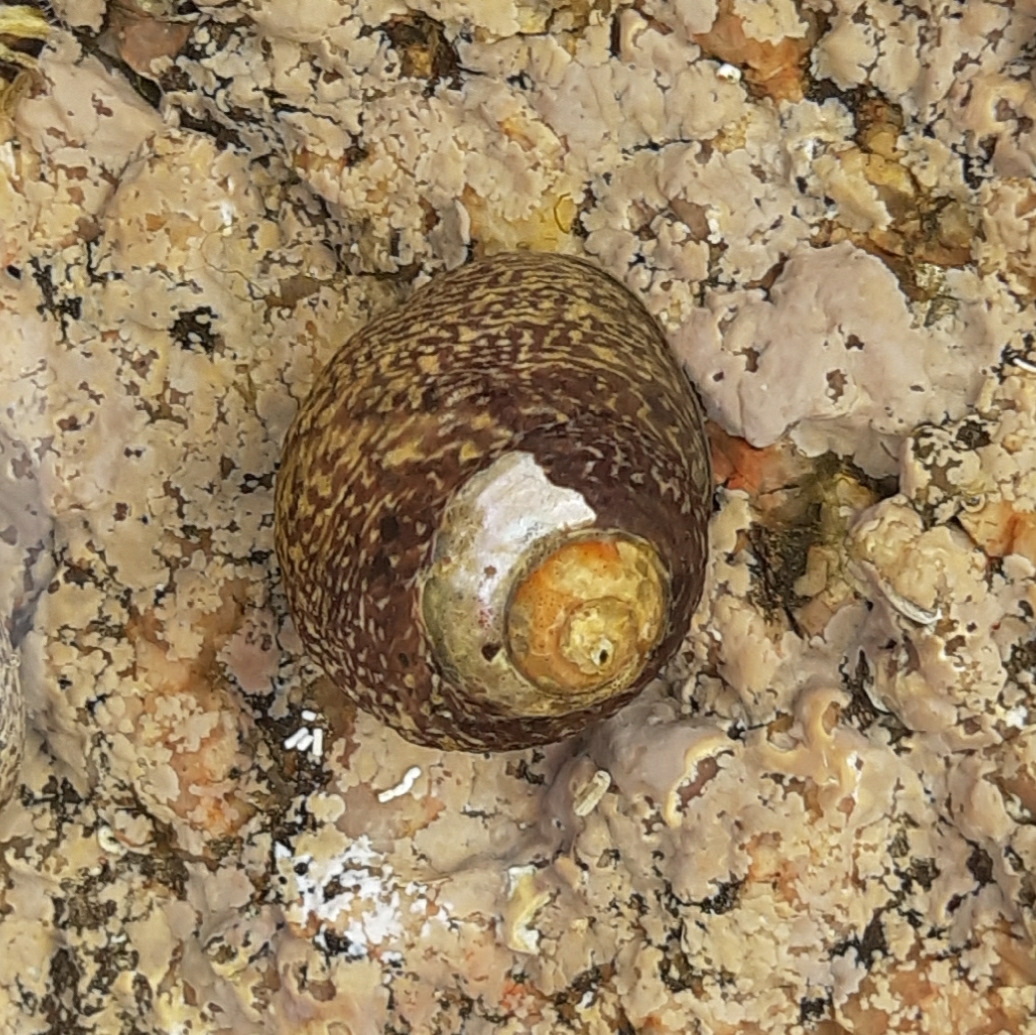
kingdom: Animalia
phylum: Mollusca
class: Gastropoda
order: Trochida
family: Trochidae
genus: Phorcus
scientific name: Phorcus lineatus
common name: Toothed top shell
